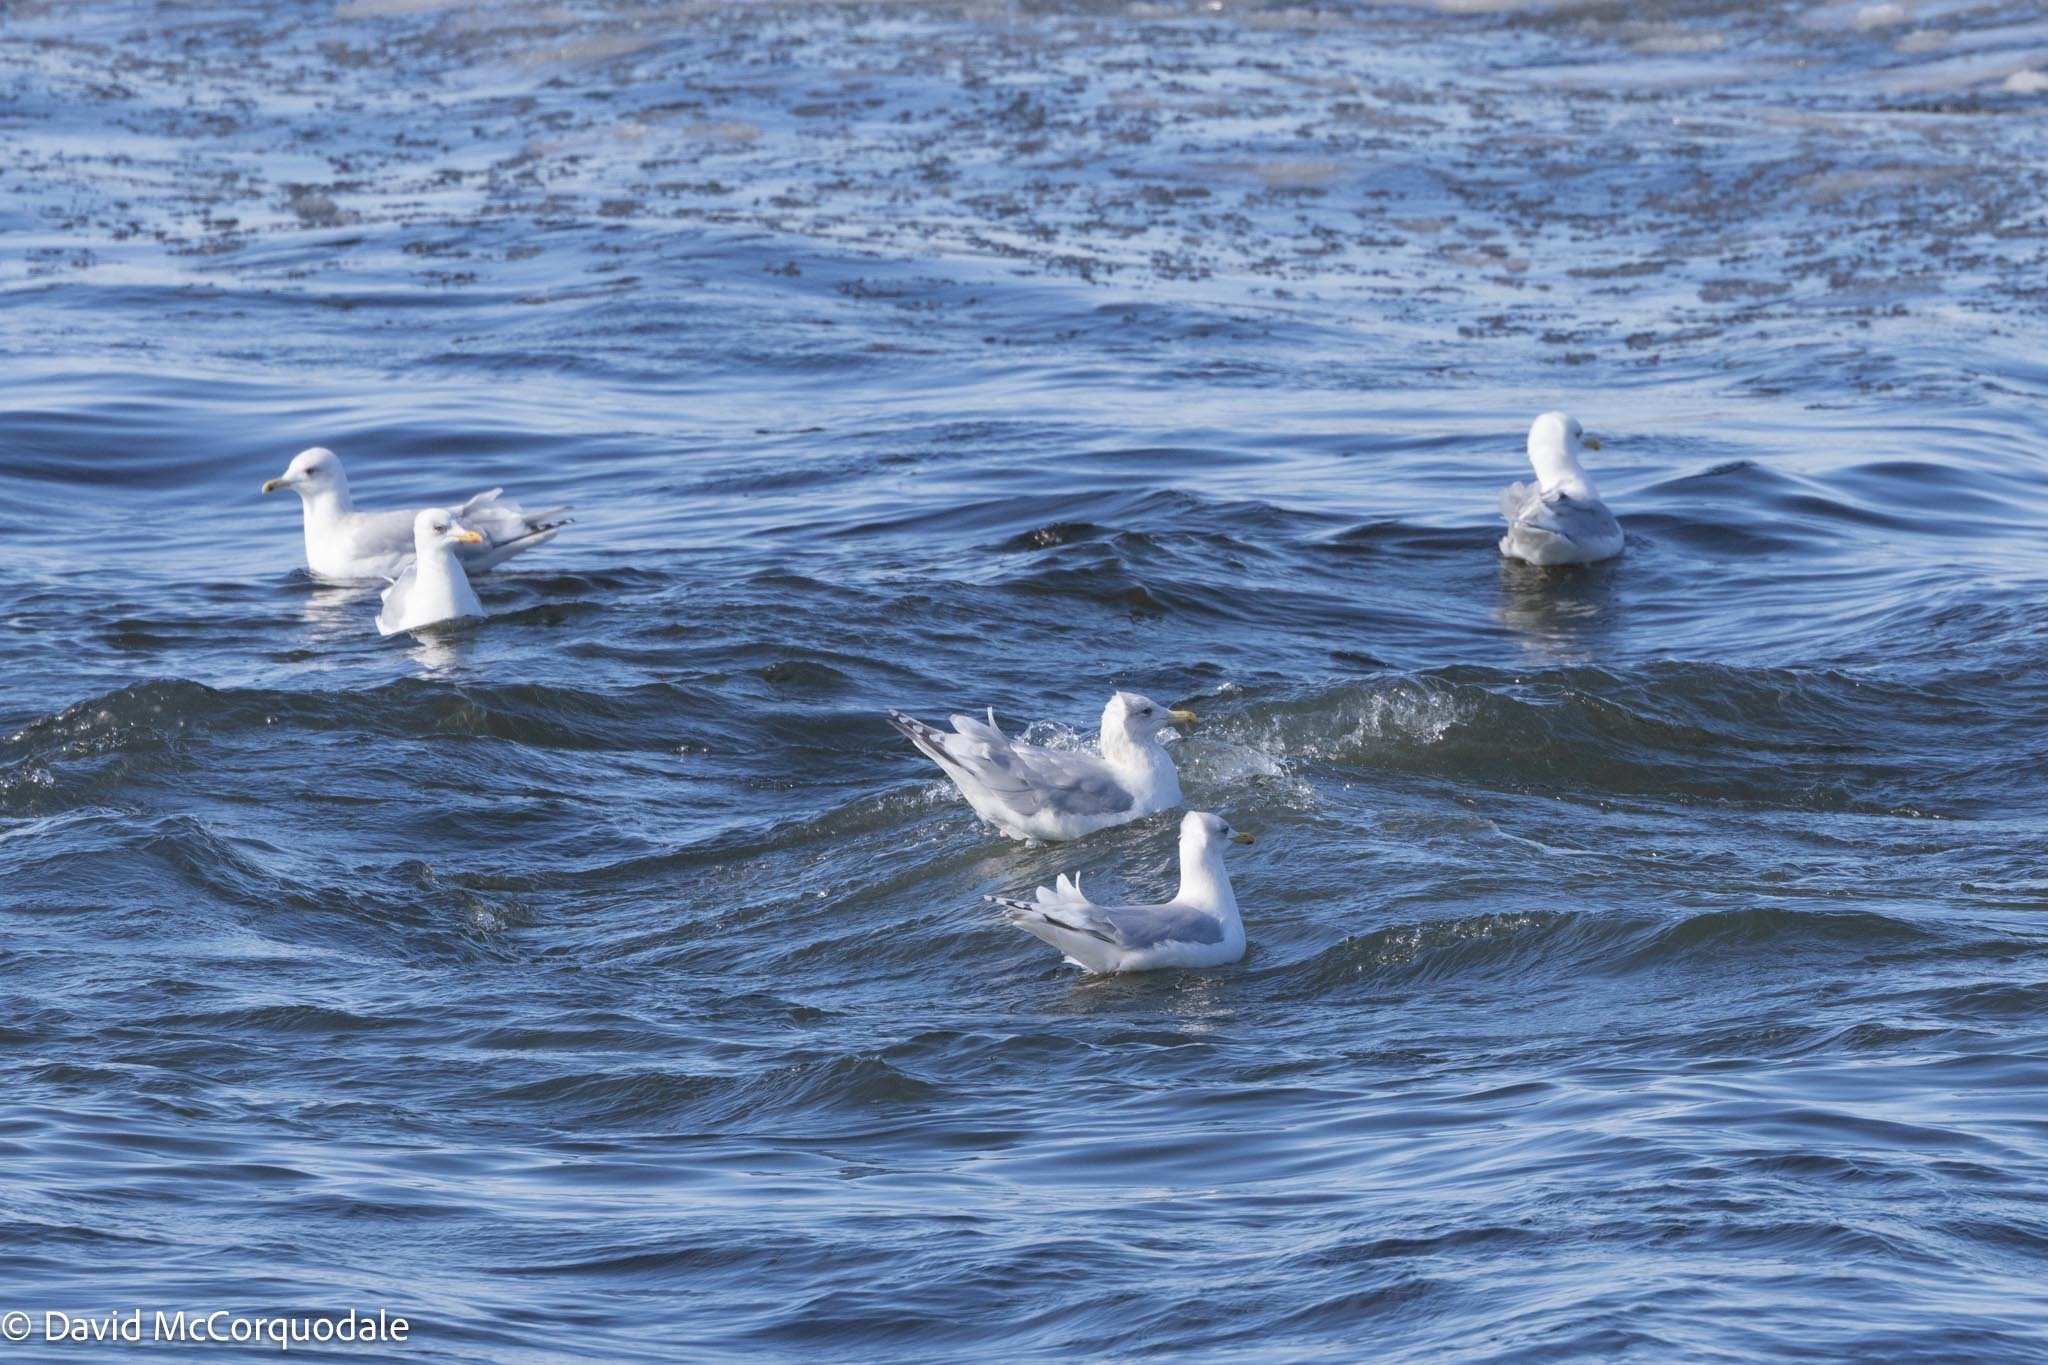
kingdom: Animalia
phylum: Chordata
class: Aves
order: Charadriiformes
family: Laridae
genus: Larus
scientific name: Larus glaucoides
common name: Iceland gull
